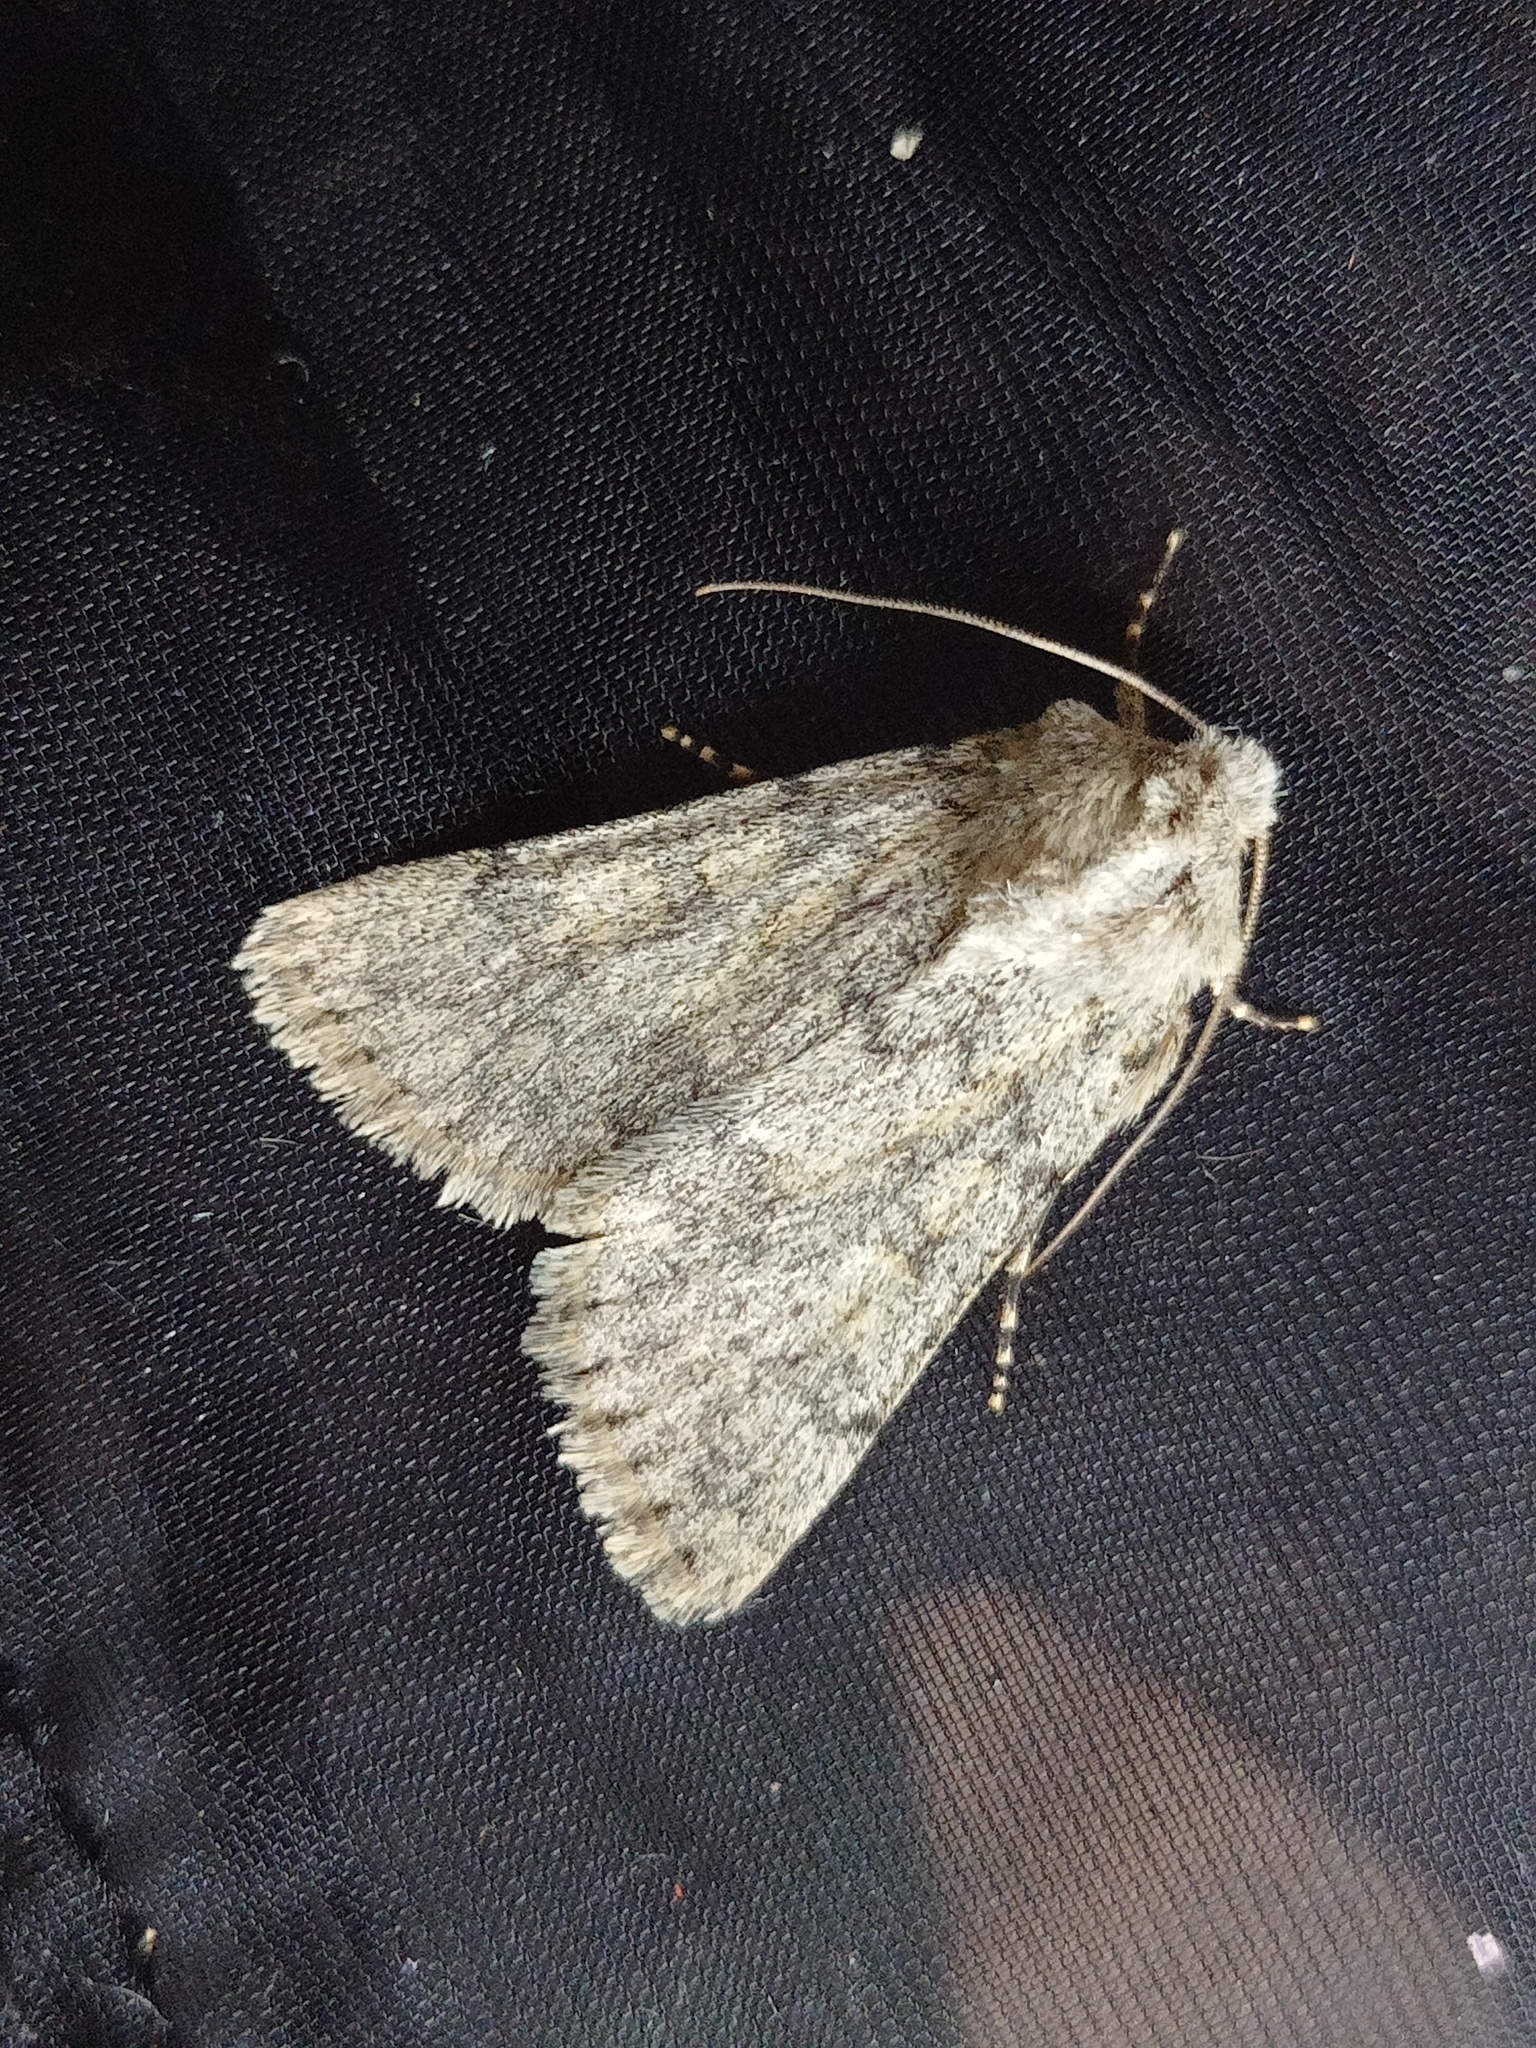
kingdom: Animalia
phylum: Arthropoda
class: Insecta
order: Lepidoptera
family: Noctuidae
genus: Dichagyris
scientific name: Dichagyris renigera
